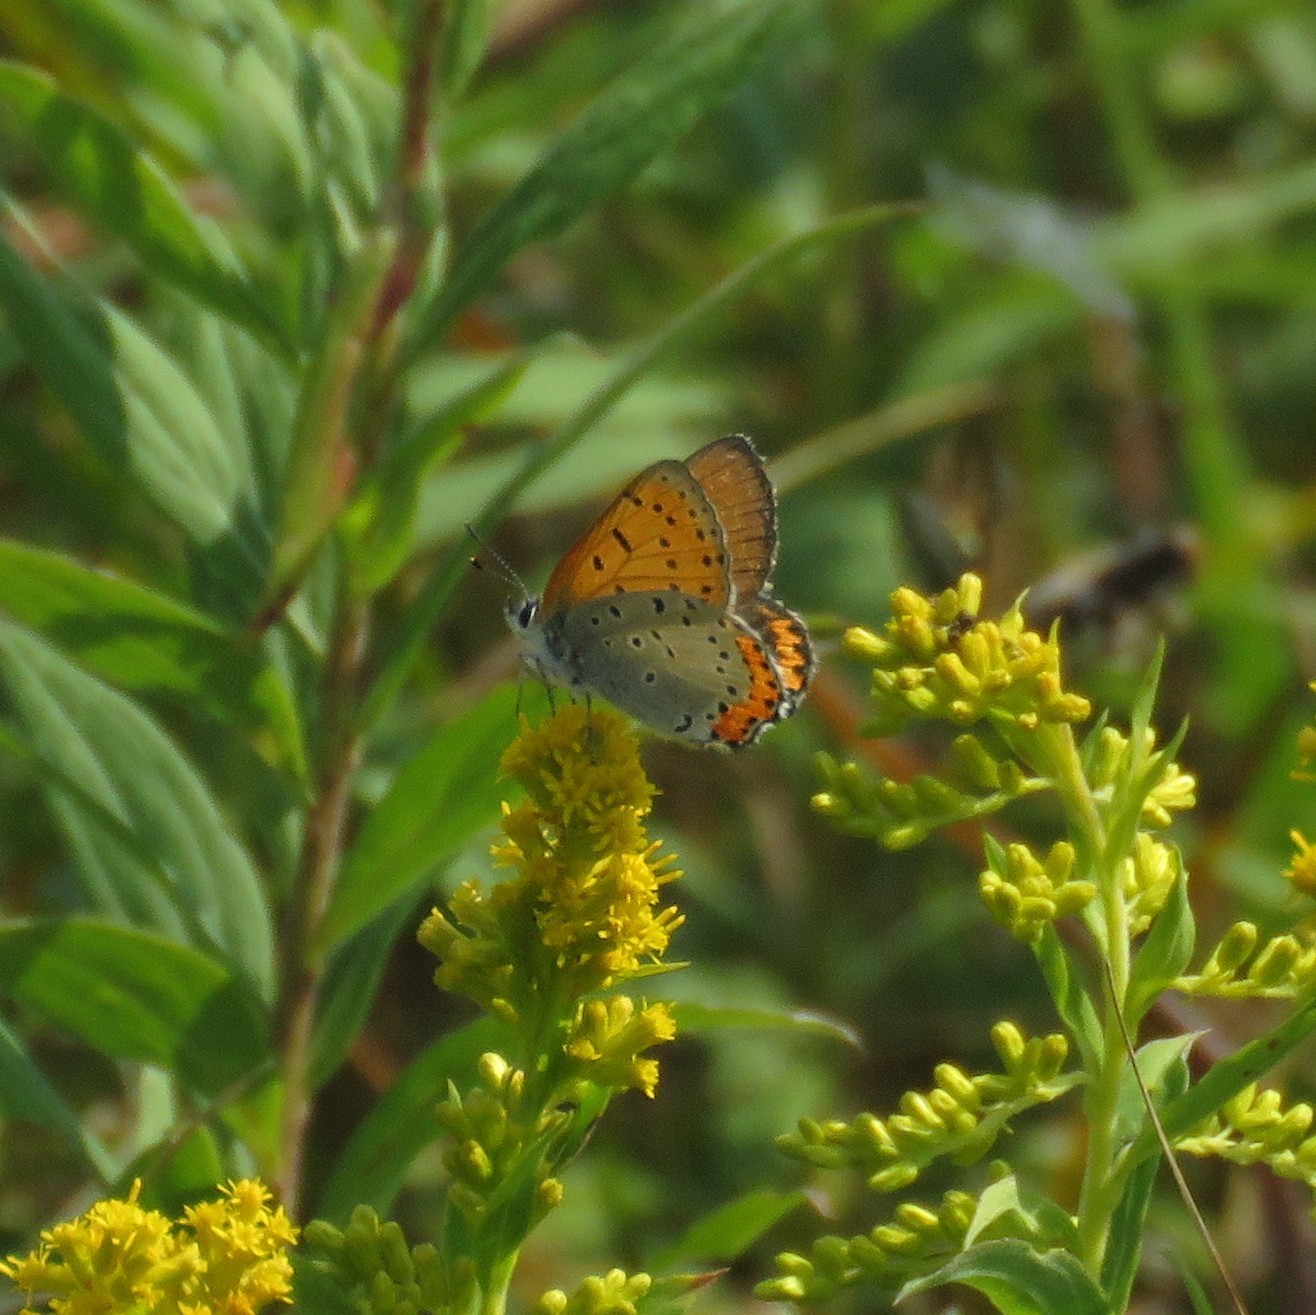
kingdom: Animalia
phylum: Arthropoda
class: Insecta
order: Lepidoptera
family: Lycaenidae
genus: Tharsalea
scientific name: Tharsalea hyllus
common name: Bronze copper
